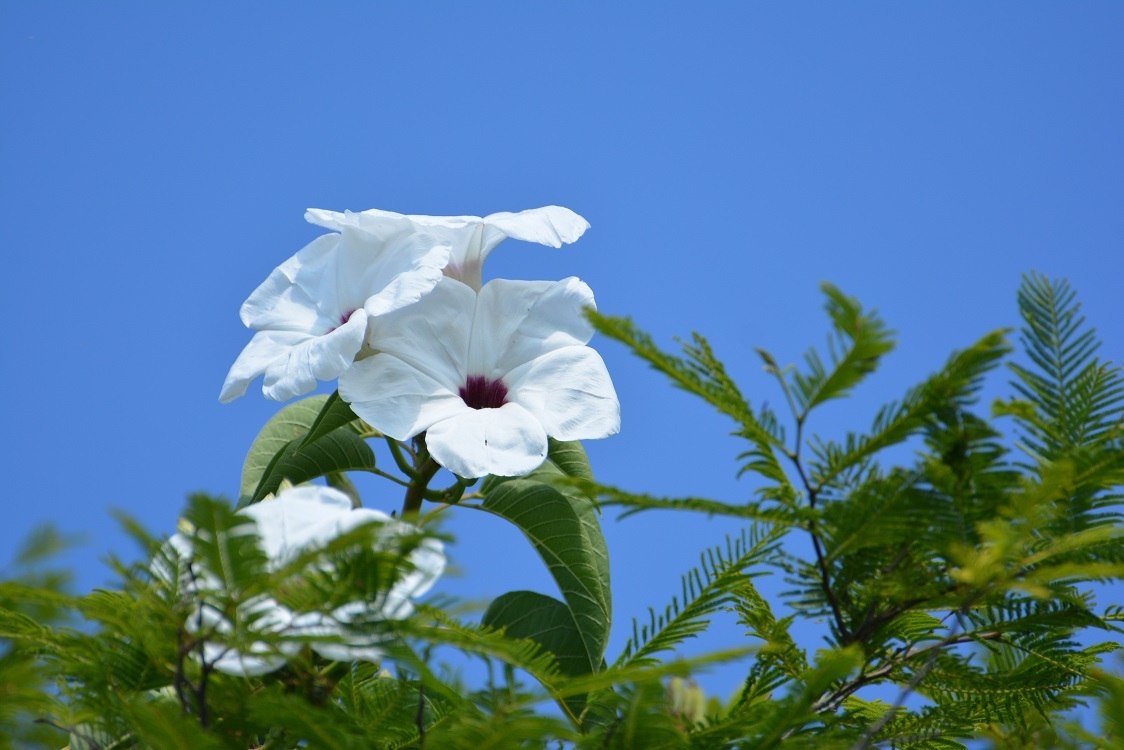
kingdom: Plantae
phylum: Tracheophyta
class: Magnoliopsida
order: Solanales
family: Convolvulaceae
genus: Ipomoea
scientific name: Ipomoea pauciflora
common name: Tree morningglory
